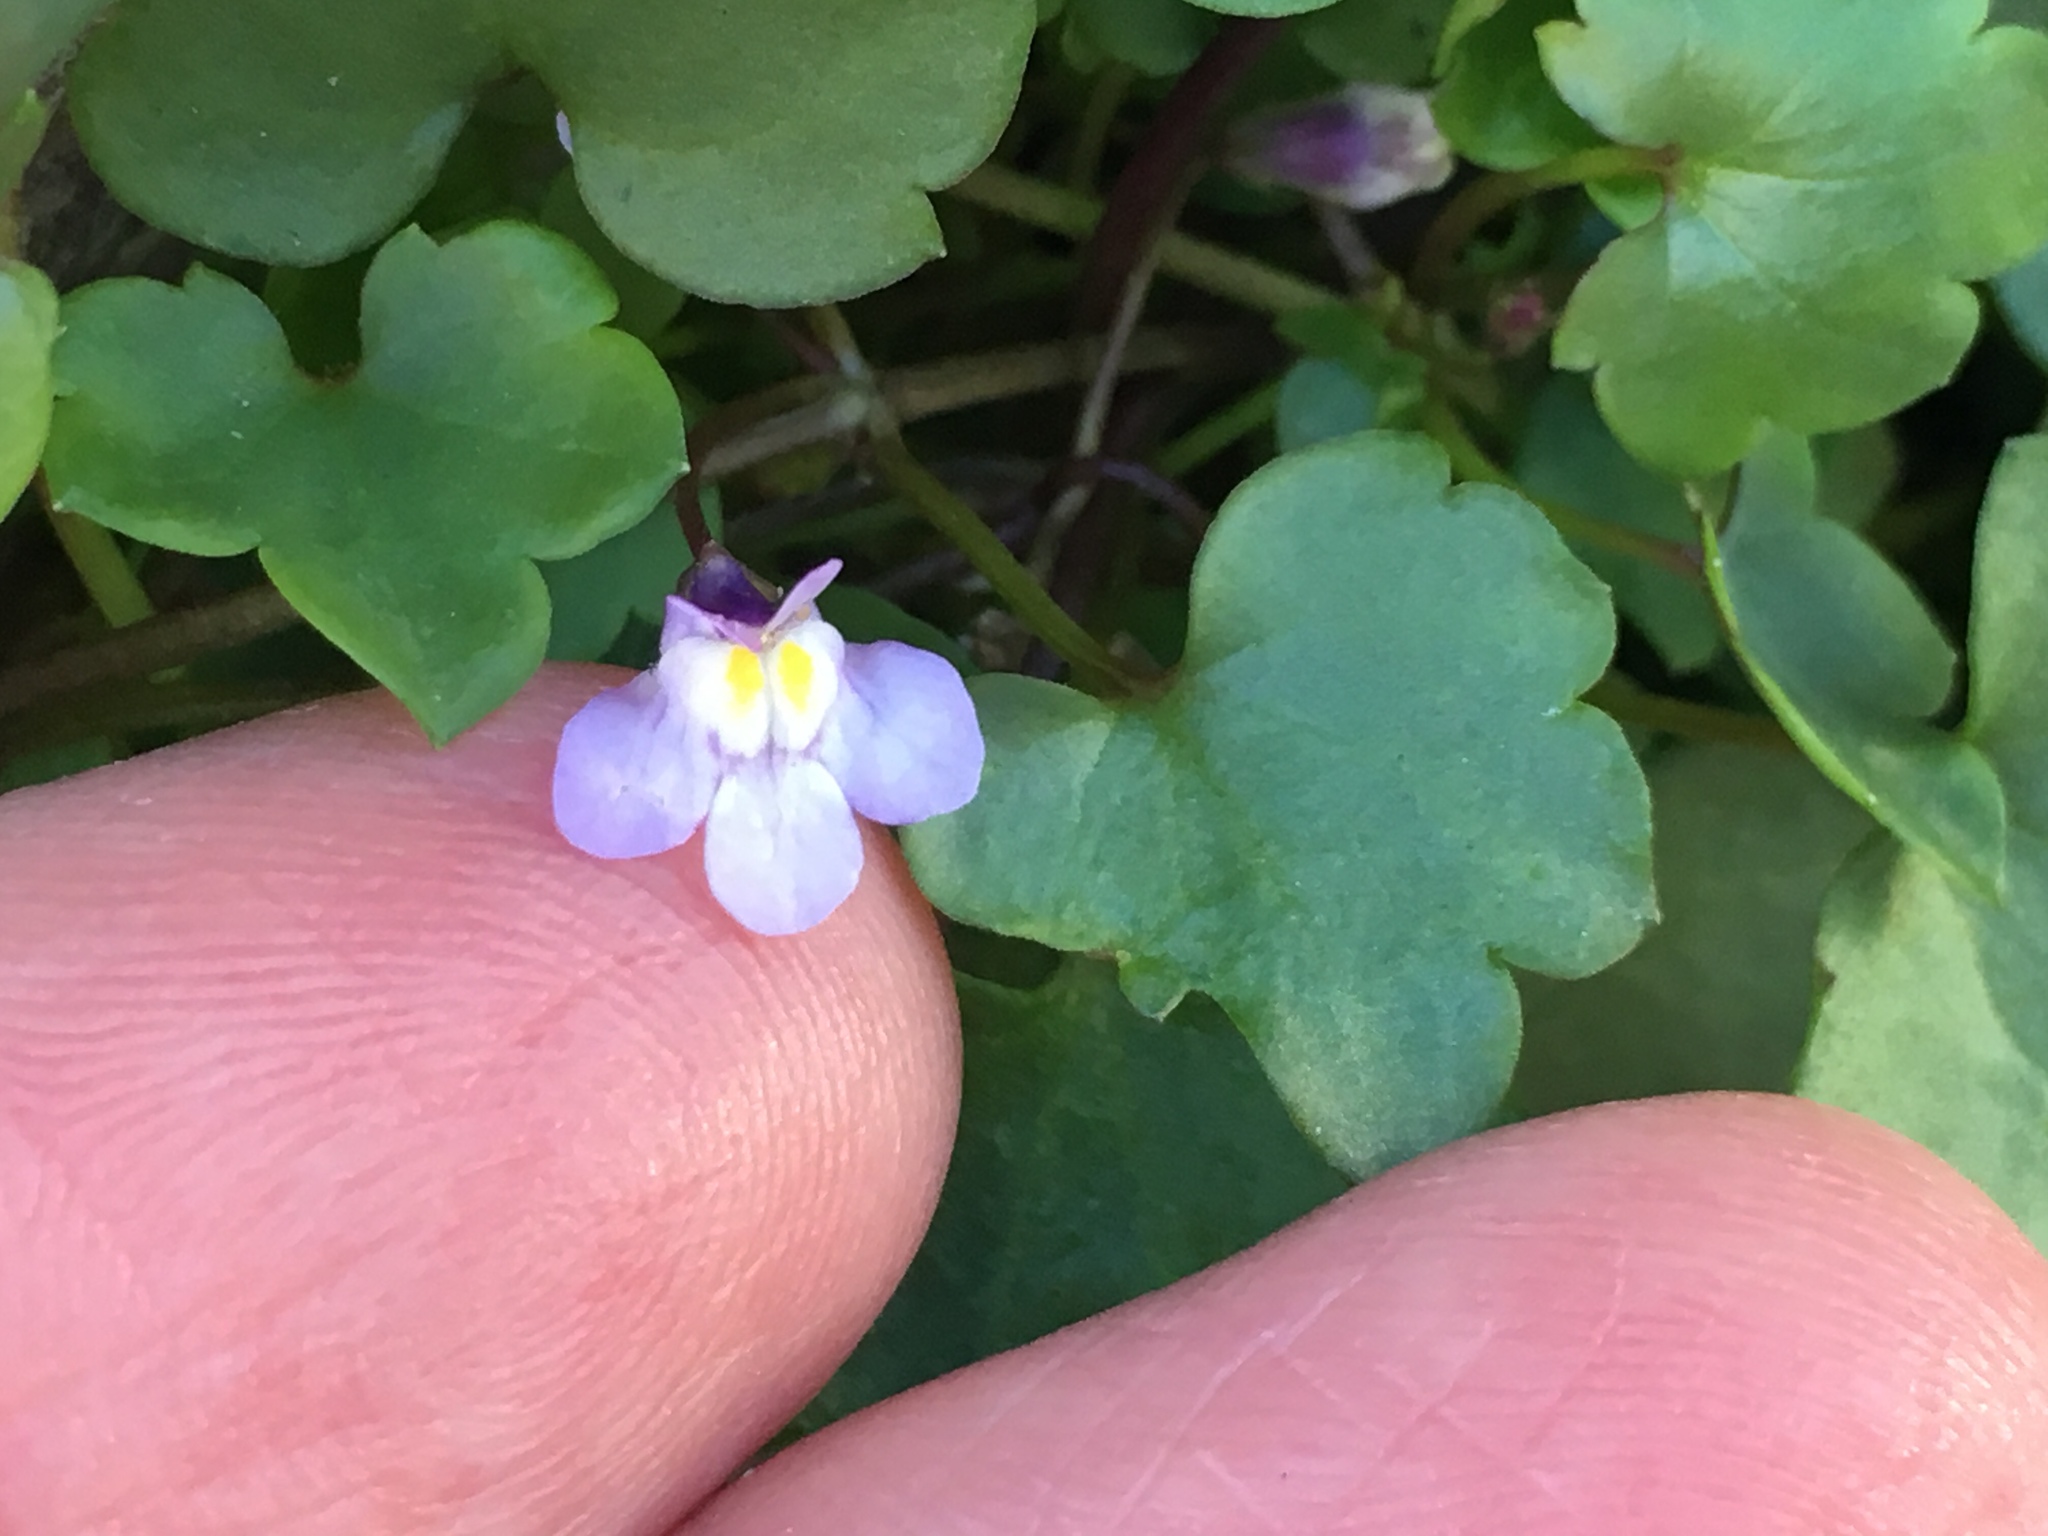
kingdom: Plantae
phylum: Tracheophyta
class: Magnoliopsida
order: Lamiales
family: Plantaginaceae
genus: Cymbalaria
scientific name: Cymbalaria muralis
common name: Ivy-leaved toadflax
